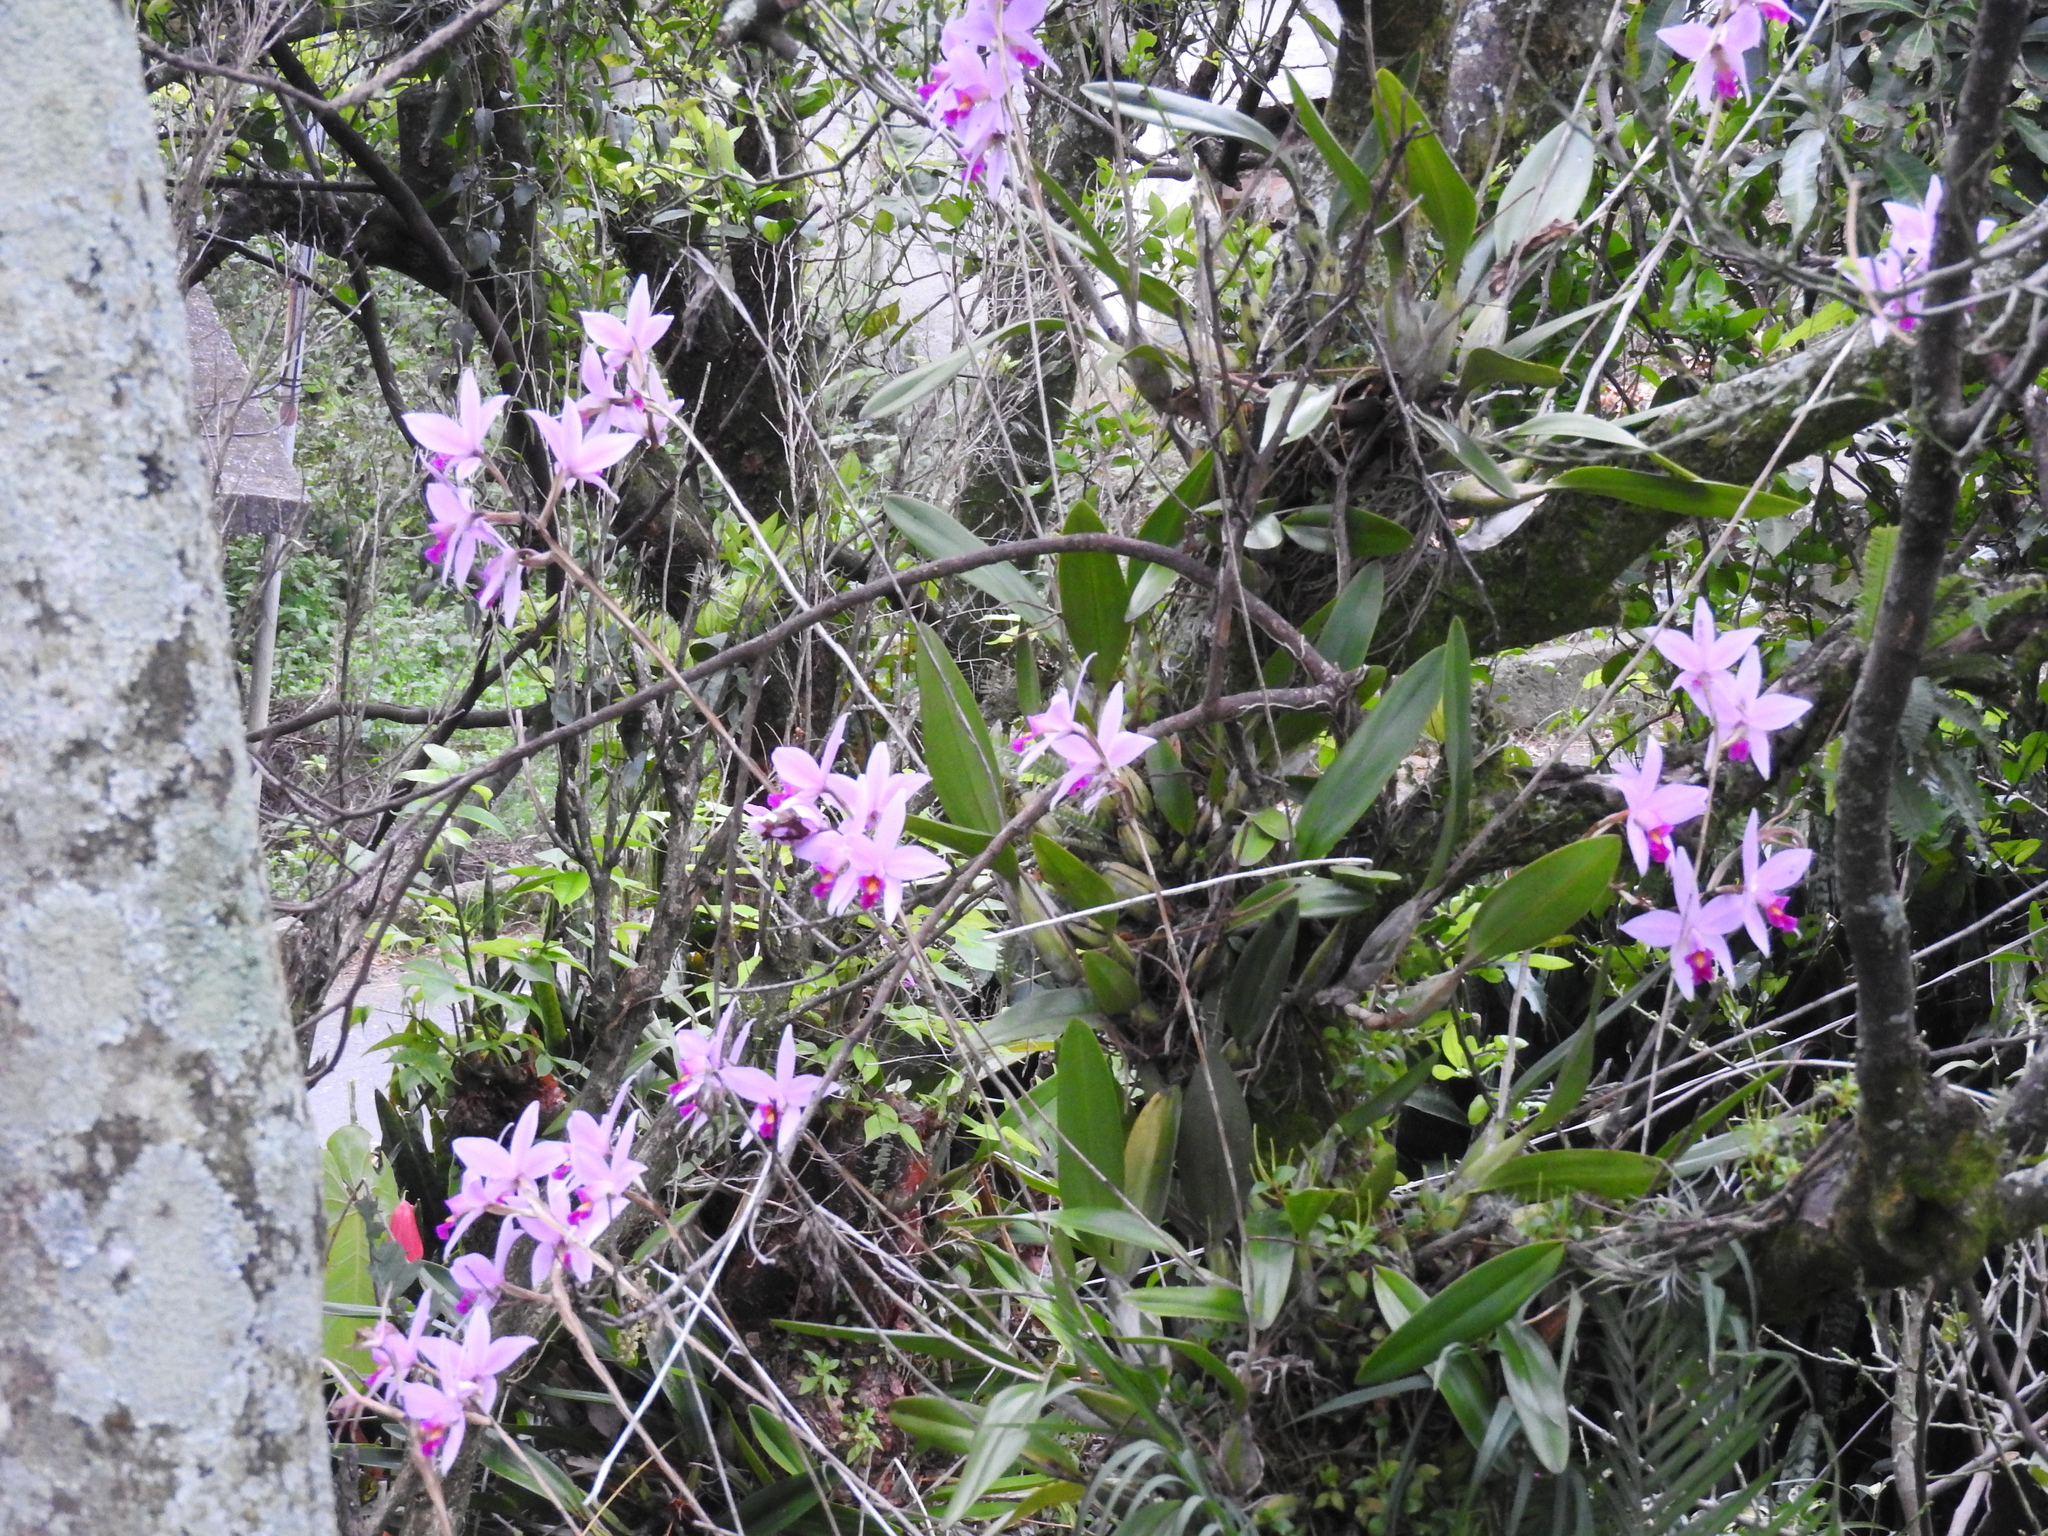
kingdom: Plantae
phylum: Tracheophyta
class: Liliopsida
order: Asparagales
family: Orchidaceae
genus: Laelia
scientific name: Laelia anceps
